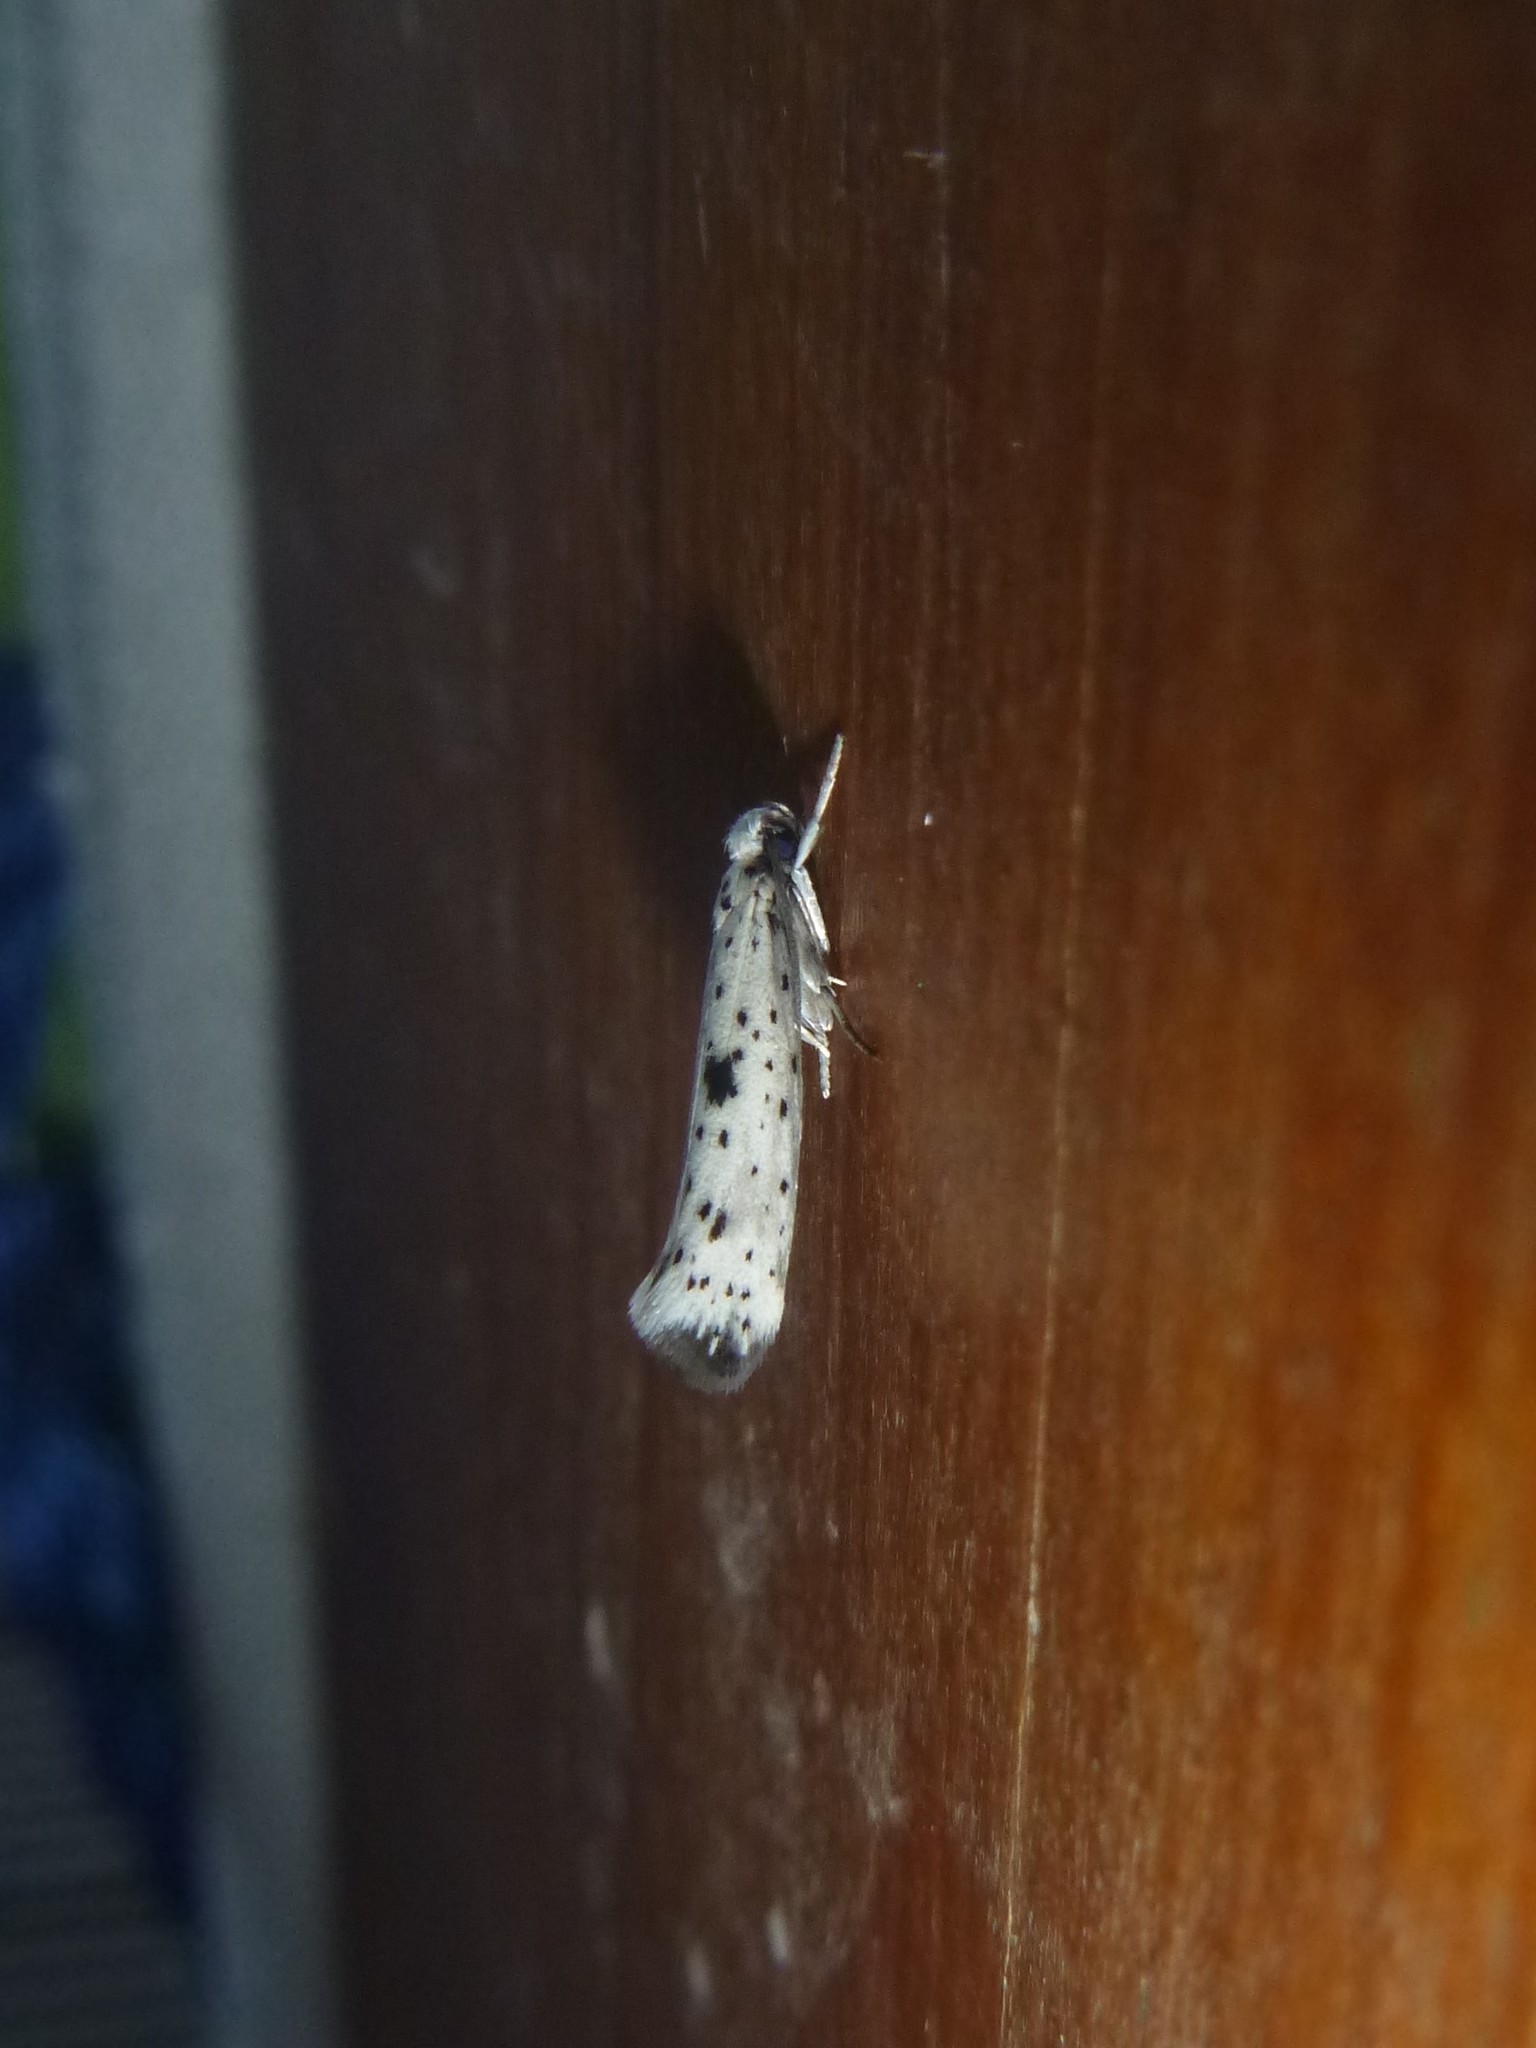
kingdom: Animalia
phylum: Arthropoda
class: Insecta
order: Lepidoptera
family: Yponomeutidae
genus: Yponomeuta
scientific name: Yponomeuta plumbella
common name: Black-tipped ermine
